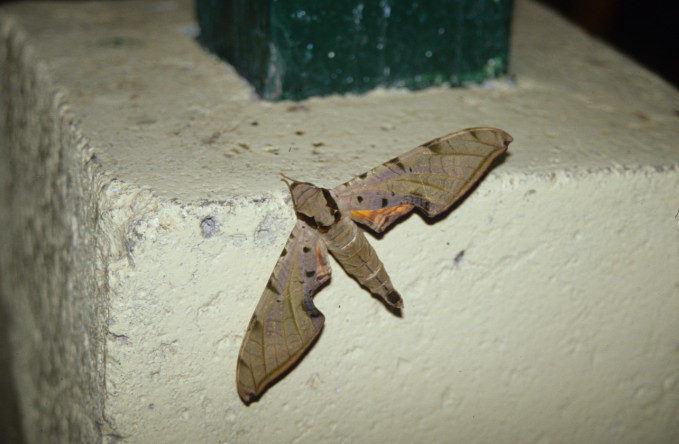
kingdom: Animalia
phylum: Arthropoda
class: Insecta
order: Lepidoptera
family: Sphingidae
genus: Protambulyx
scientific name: Protambulyx strigilis
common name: Streaked sphinx
